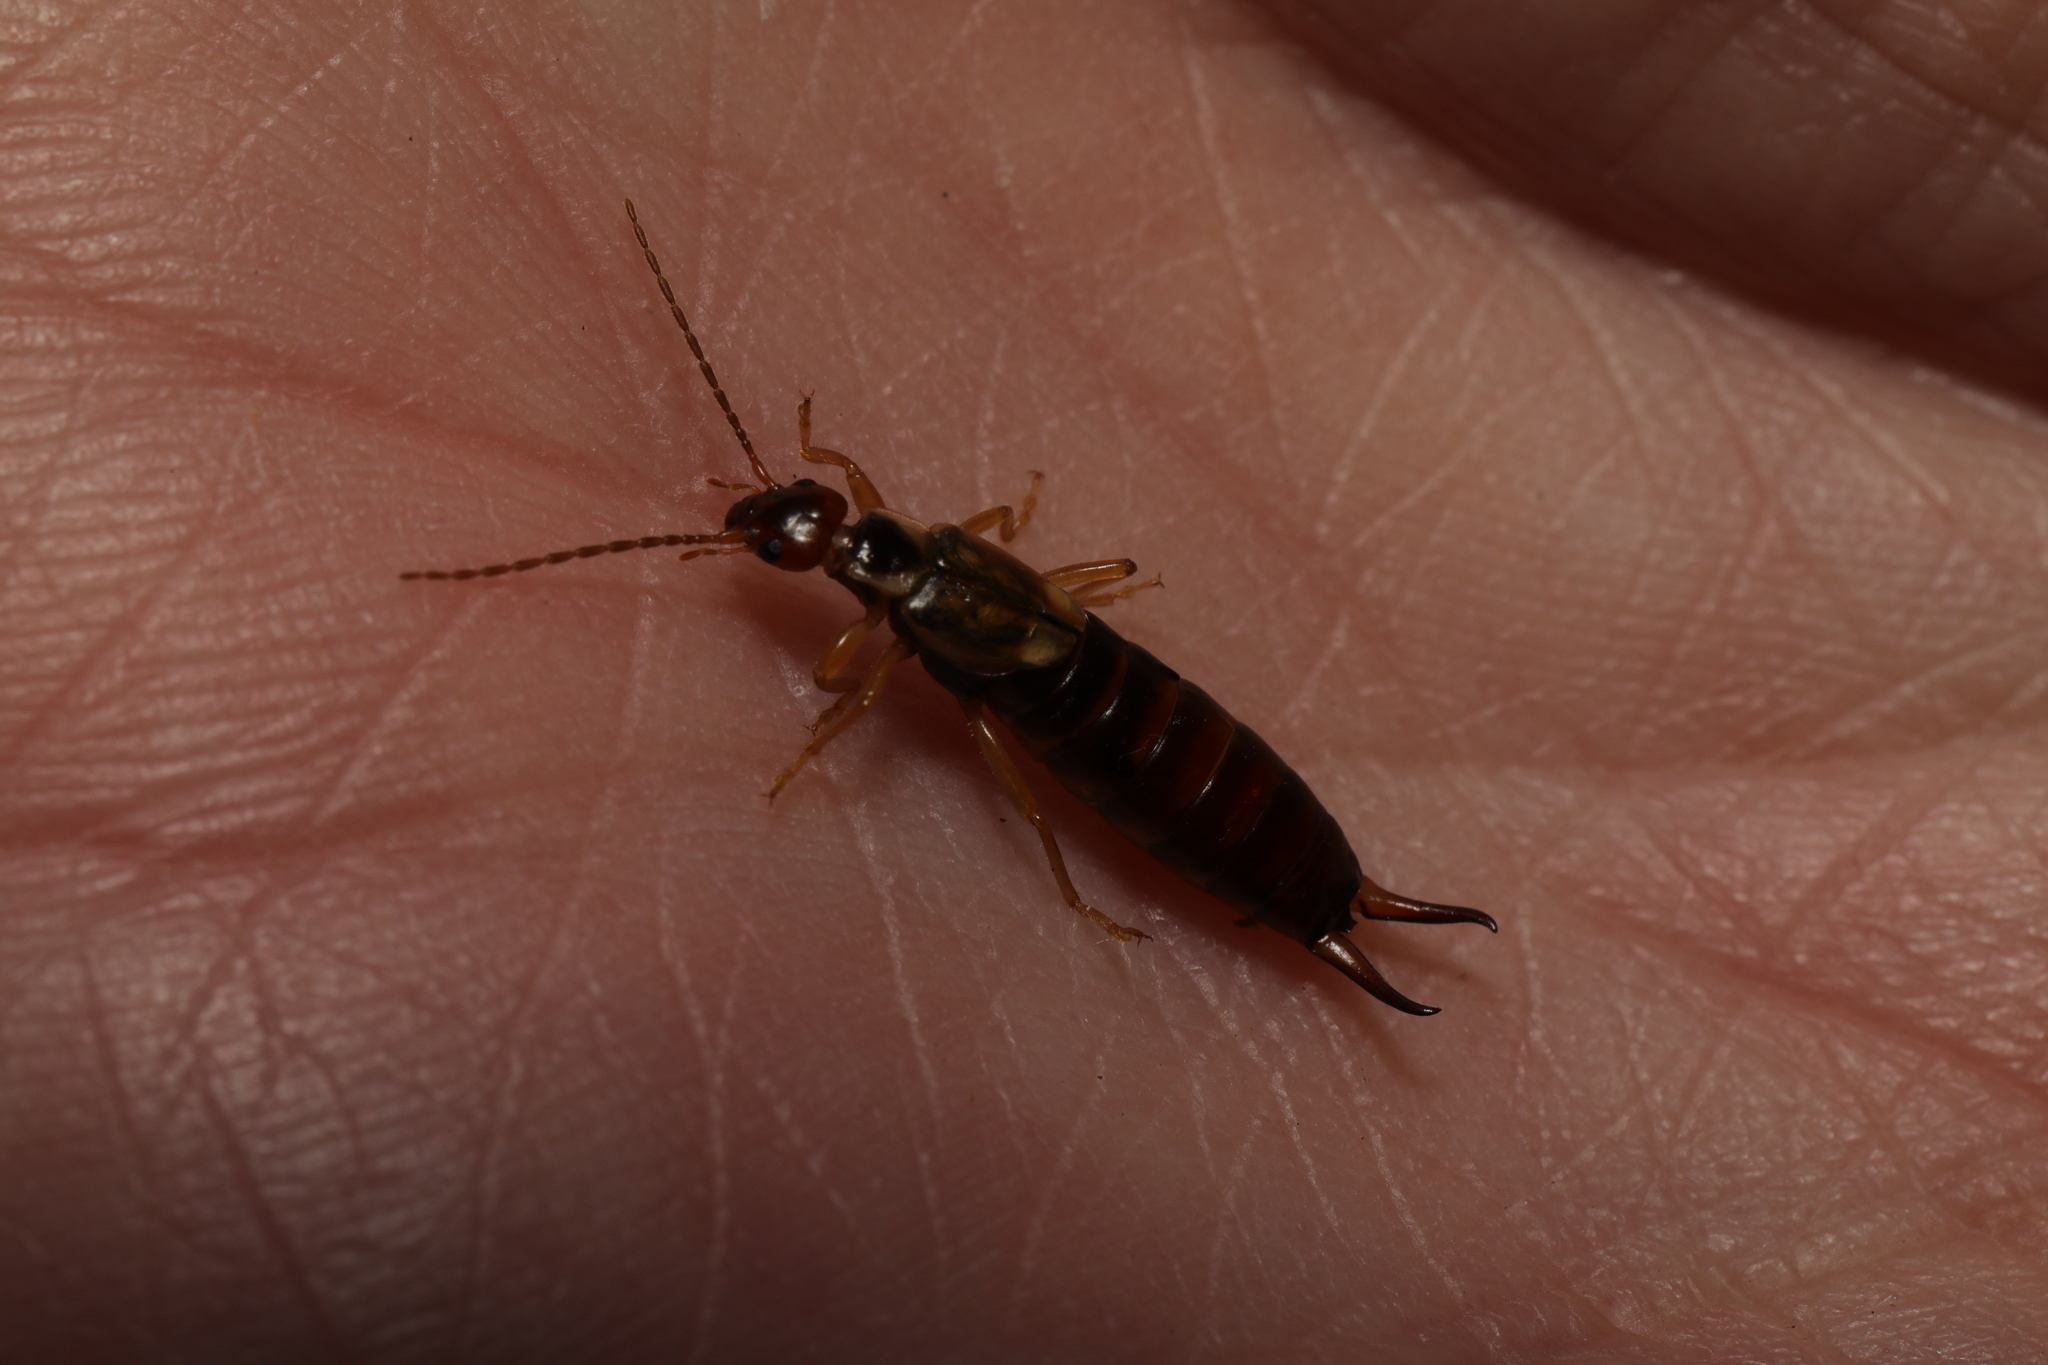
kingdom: Animalia
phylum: Arthropoda
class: Insecta
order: Dermaptera
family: Forficulidae
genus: Forficula
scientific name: Forficula
